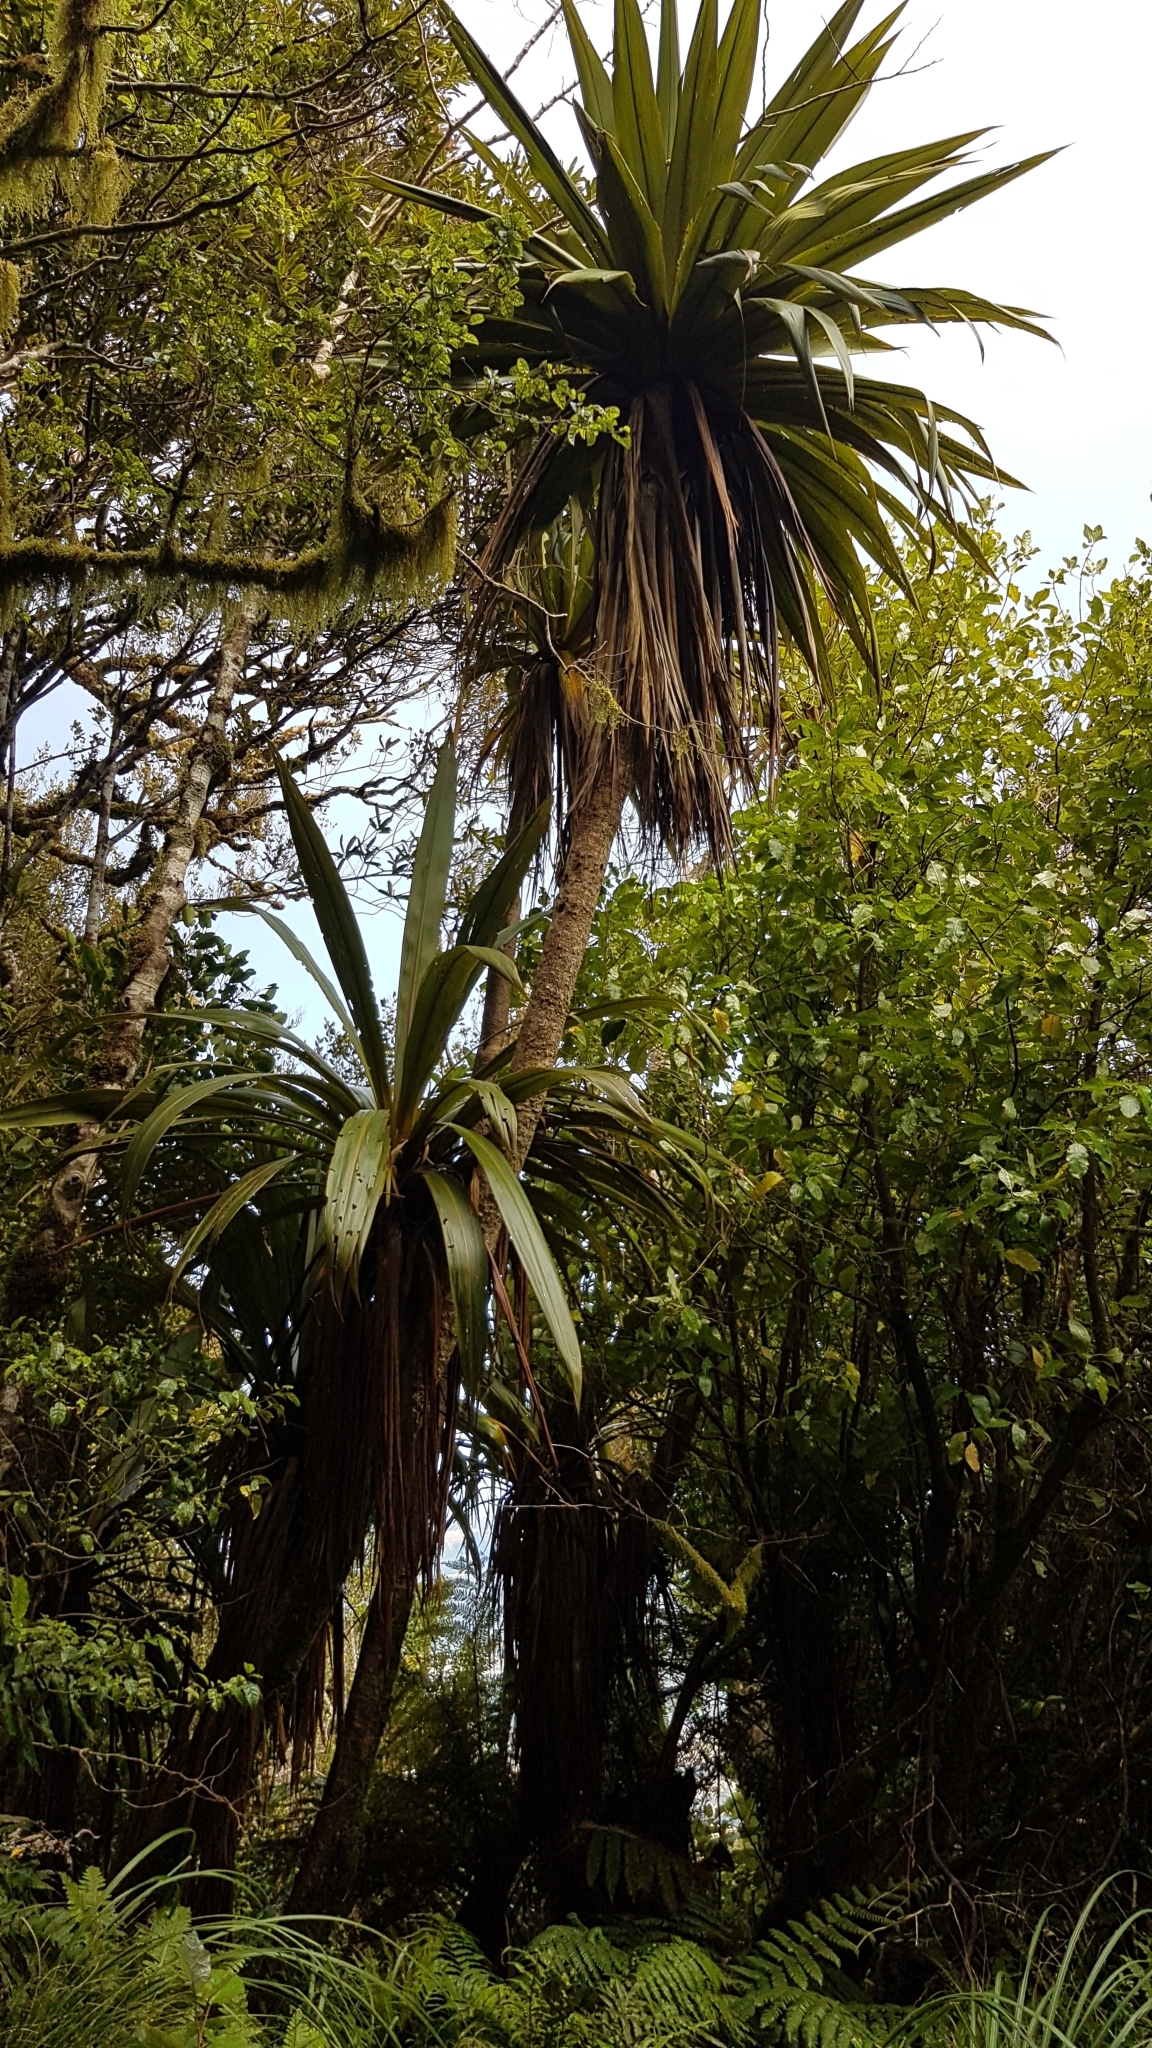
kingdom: Plantae
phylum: Tracheophyta
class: Liliopsida
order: Asparagales
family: Asparagaceae
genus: Cordyline
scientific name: Cordyline indivisa
